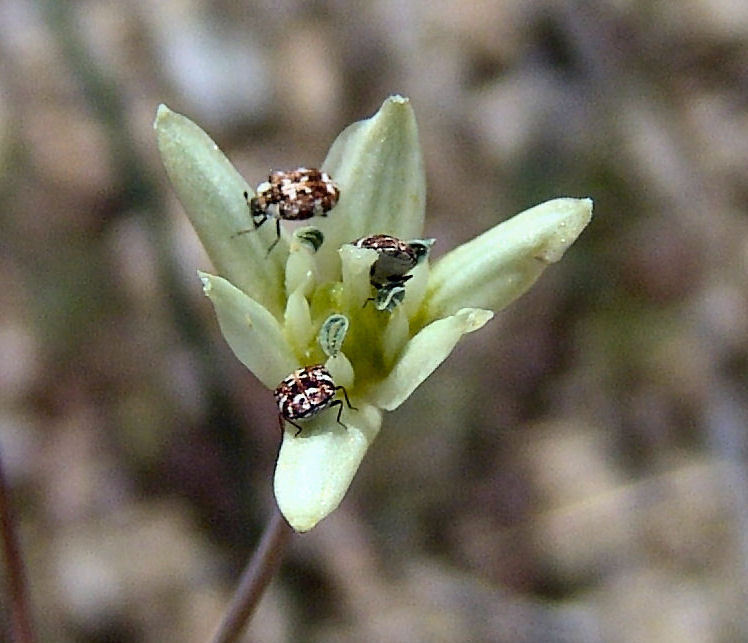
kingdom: Animalia
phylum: Arthropoda
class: Insecta
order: Coleoptera
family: Dermestidae
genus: Anthrenus
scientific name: Anthrenus lepidus
